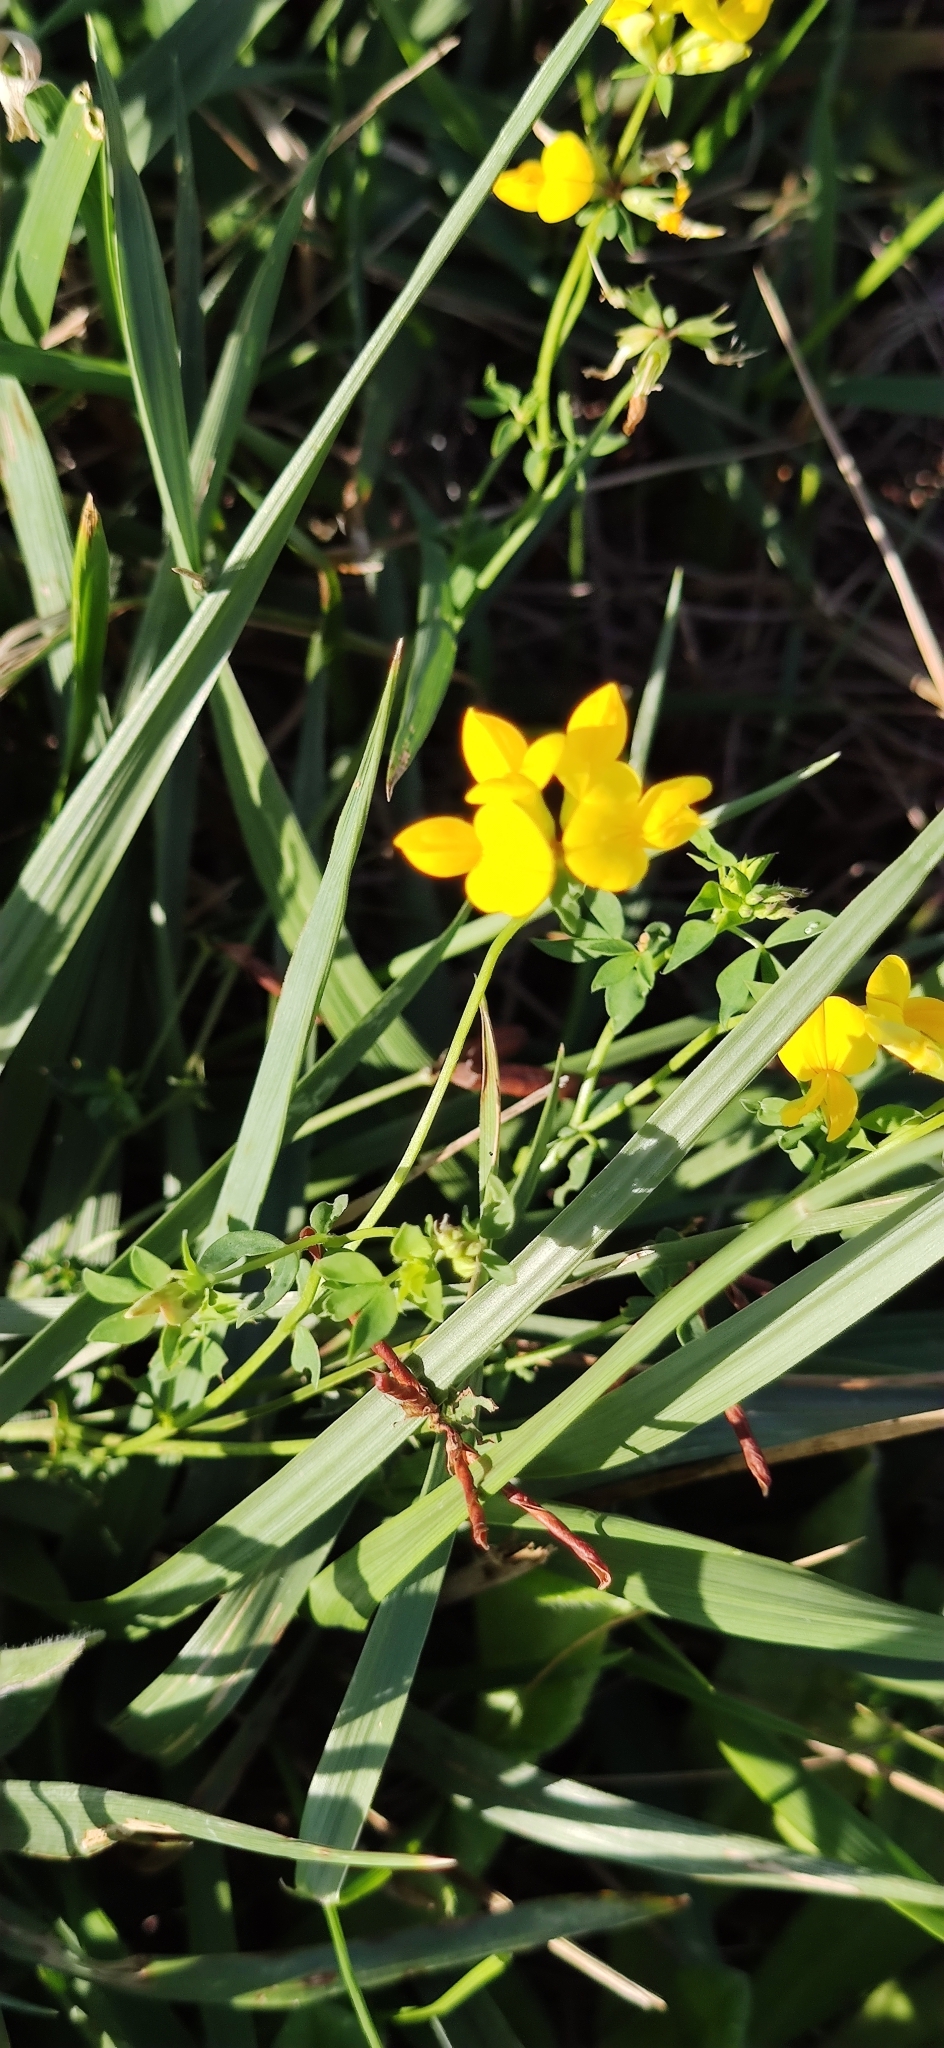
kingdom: Plantae
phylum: Tracheophyta
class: Magnoliopsida
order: Fabales
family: Fabaceae
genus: Lotus
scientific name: Lotus corniculatus
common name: Common bird's-foot-trefoil
